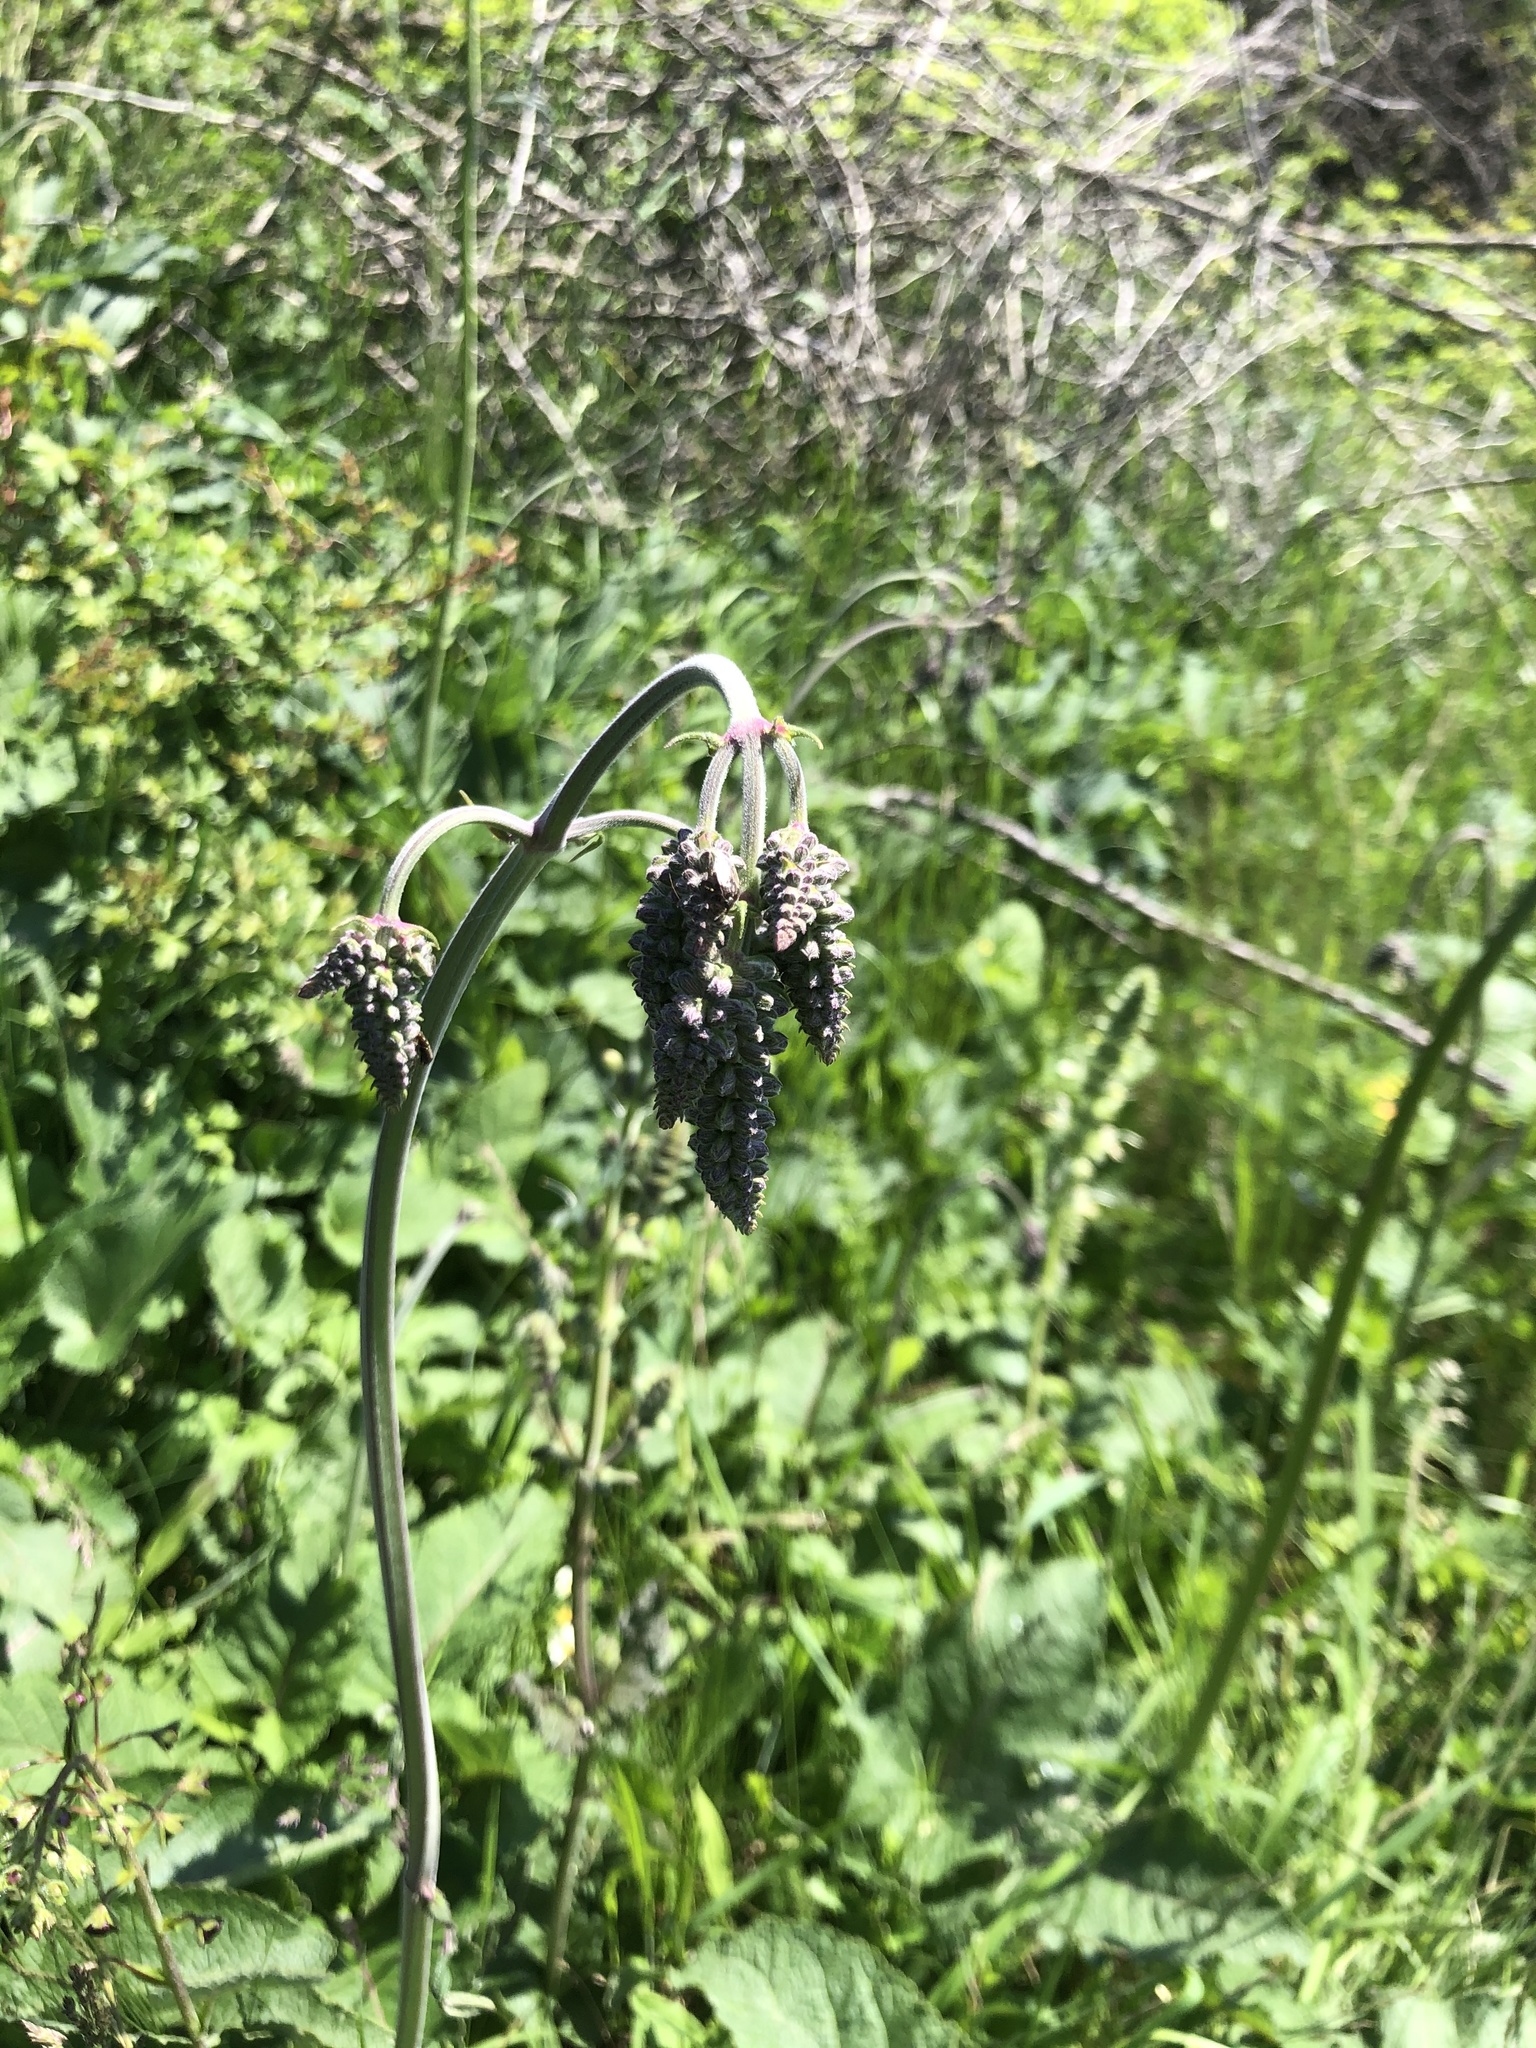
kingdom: Plantae
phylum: Tracheophyta
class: Magnoliopsida
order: Lamiales
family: Lamiaceae
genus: Salvia
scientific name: Salvia nutans
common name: Nodding sage
